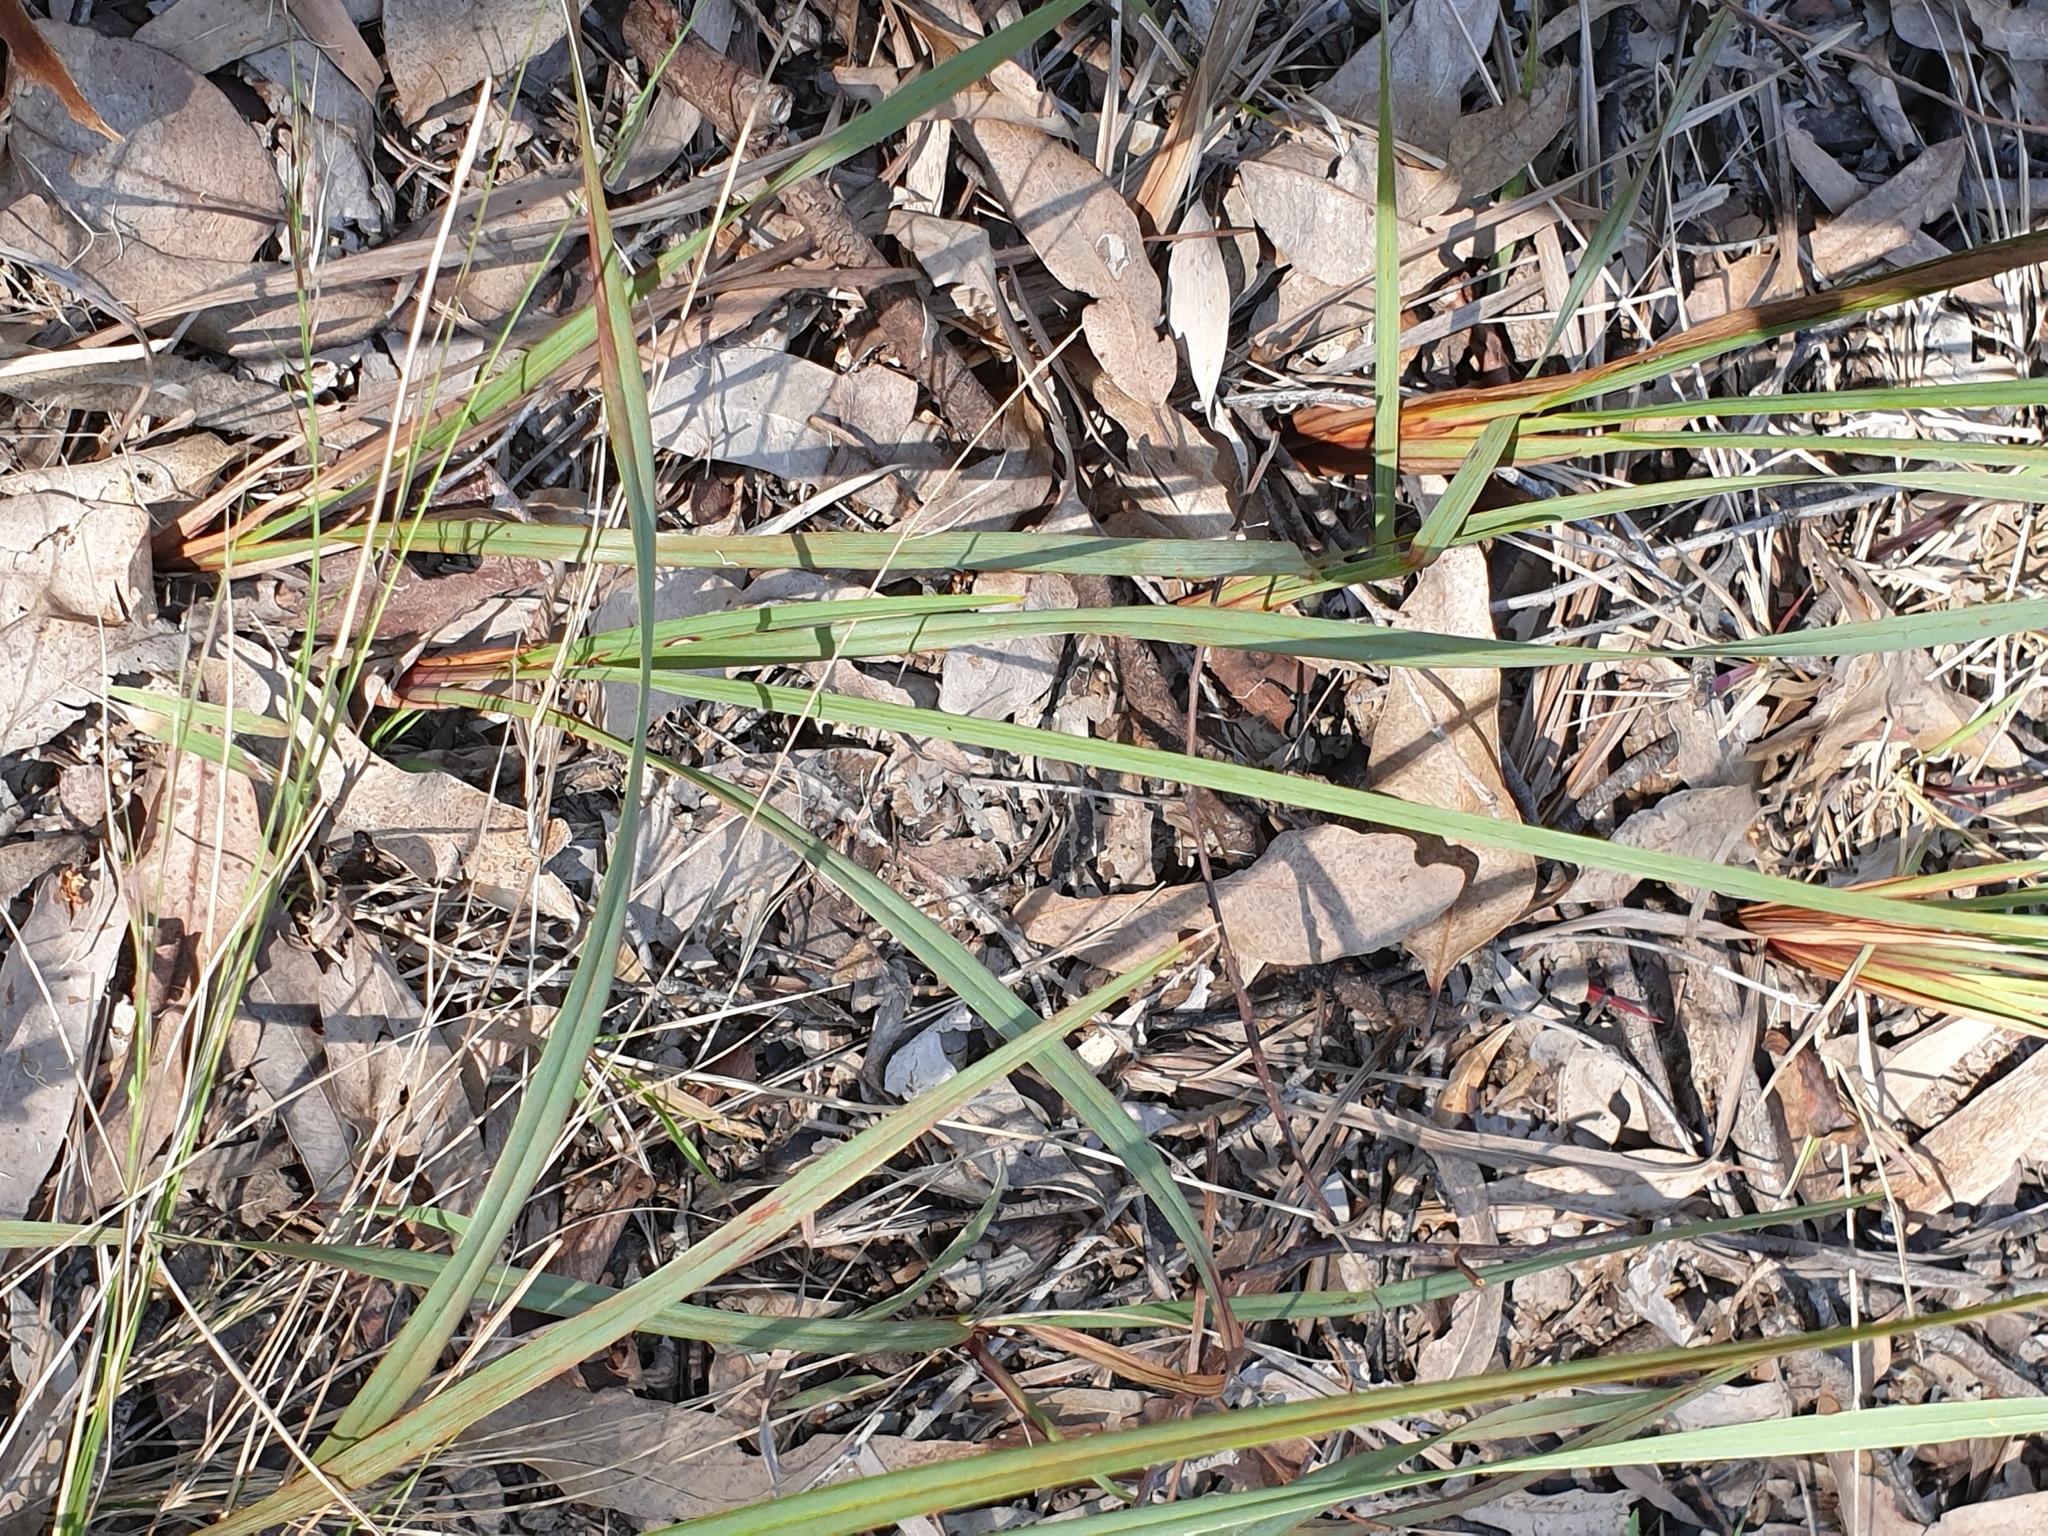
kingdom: Plantae
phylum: Tracheophyta
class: Liliopsida
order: Asparagales
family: Asphodelaceae
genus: Dianella
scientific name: Dianella revoluta
